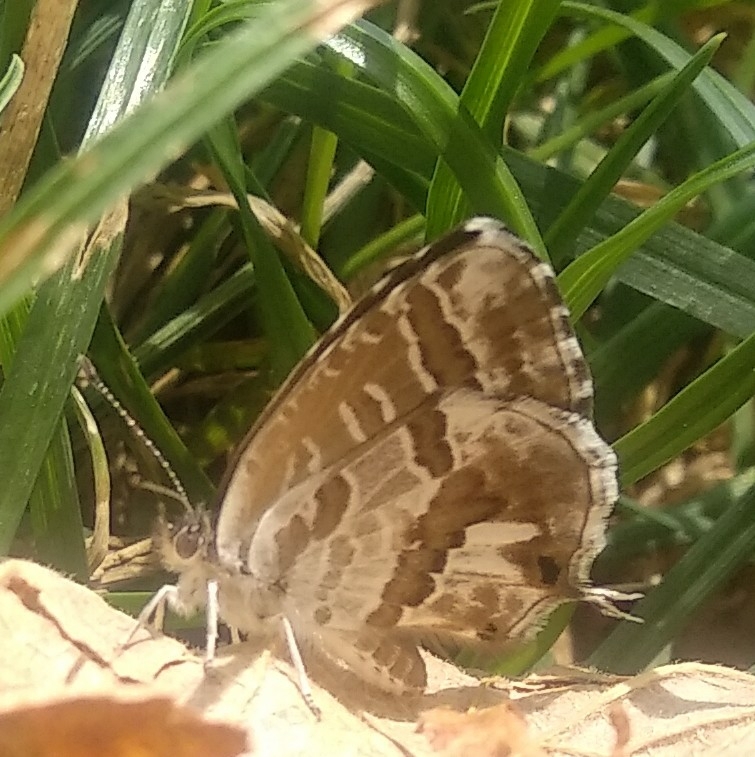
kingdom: Animalia
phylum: Arthropoda
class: Insecta
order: Lepidoptera
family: Lycaenidae
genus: Cacyreus
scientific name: Cacyreus marshalli
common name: Geranium bronze
